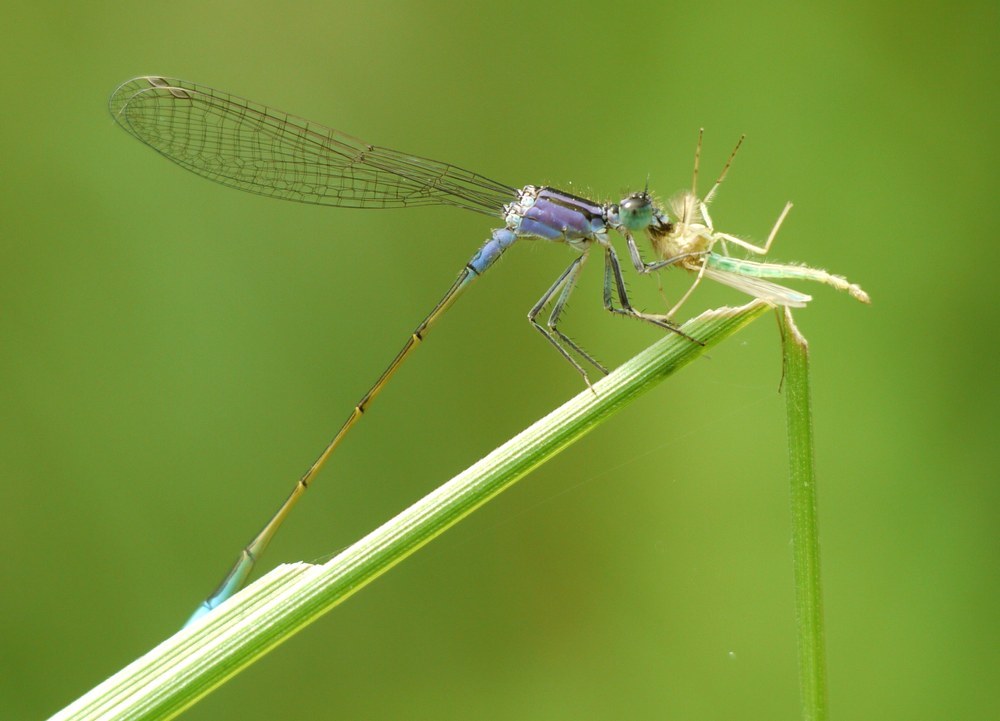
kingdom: Animalia
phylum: Arthropoda
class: Insecta
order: Odonata
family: Coenagrionidae
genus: Ischnura
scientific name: Ischnura elegans
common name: Blue-tailed damselfly
